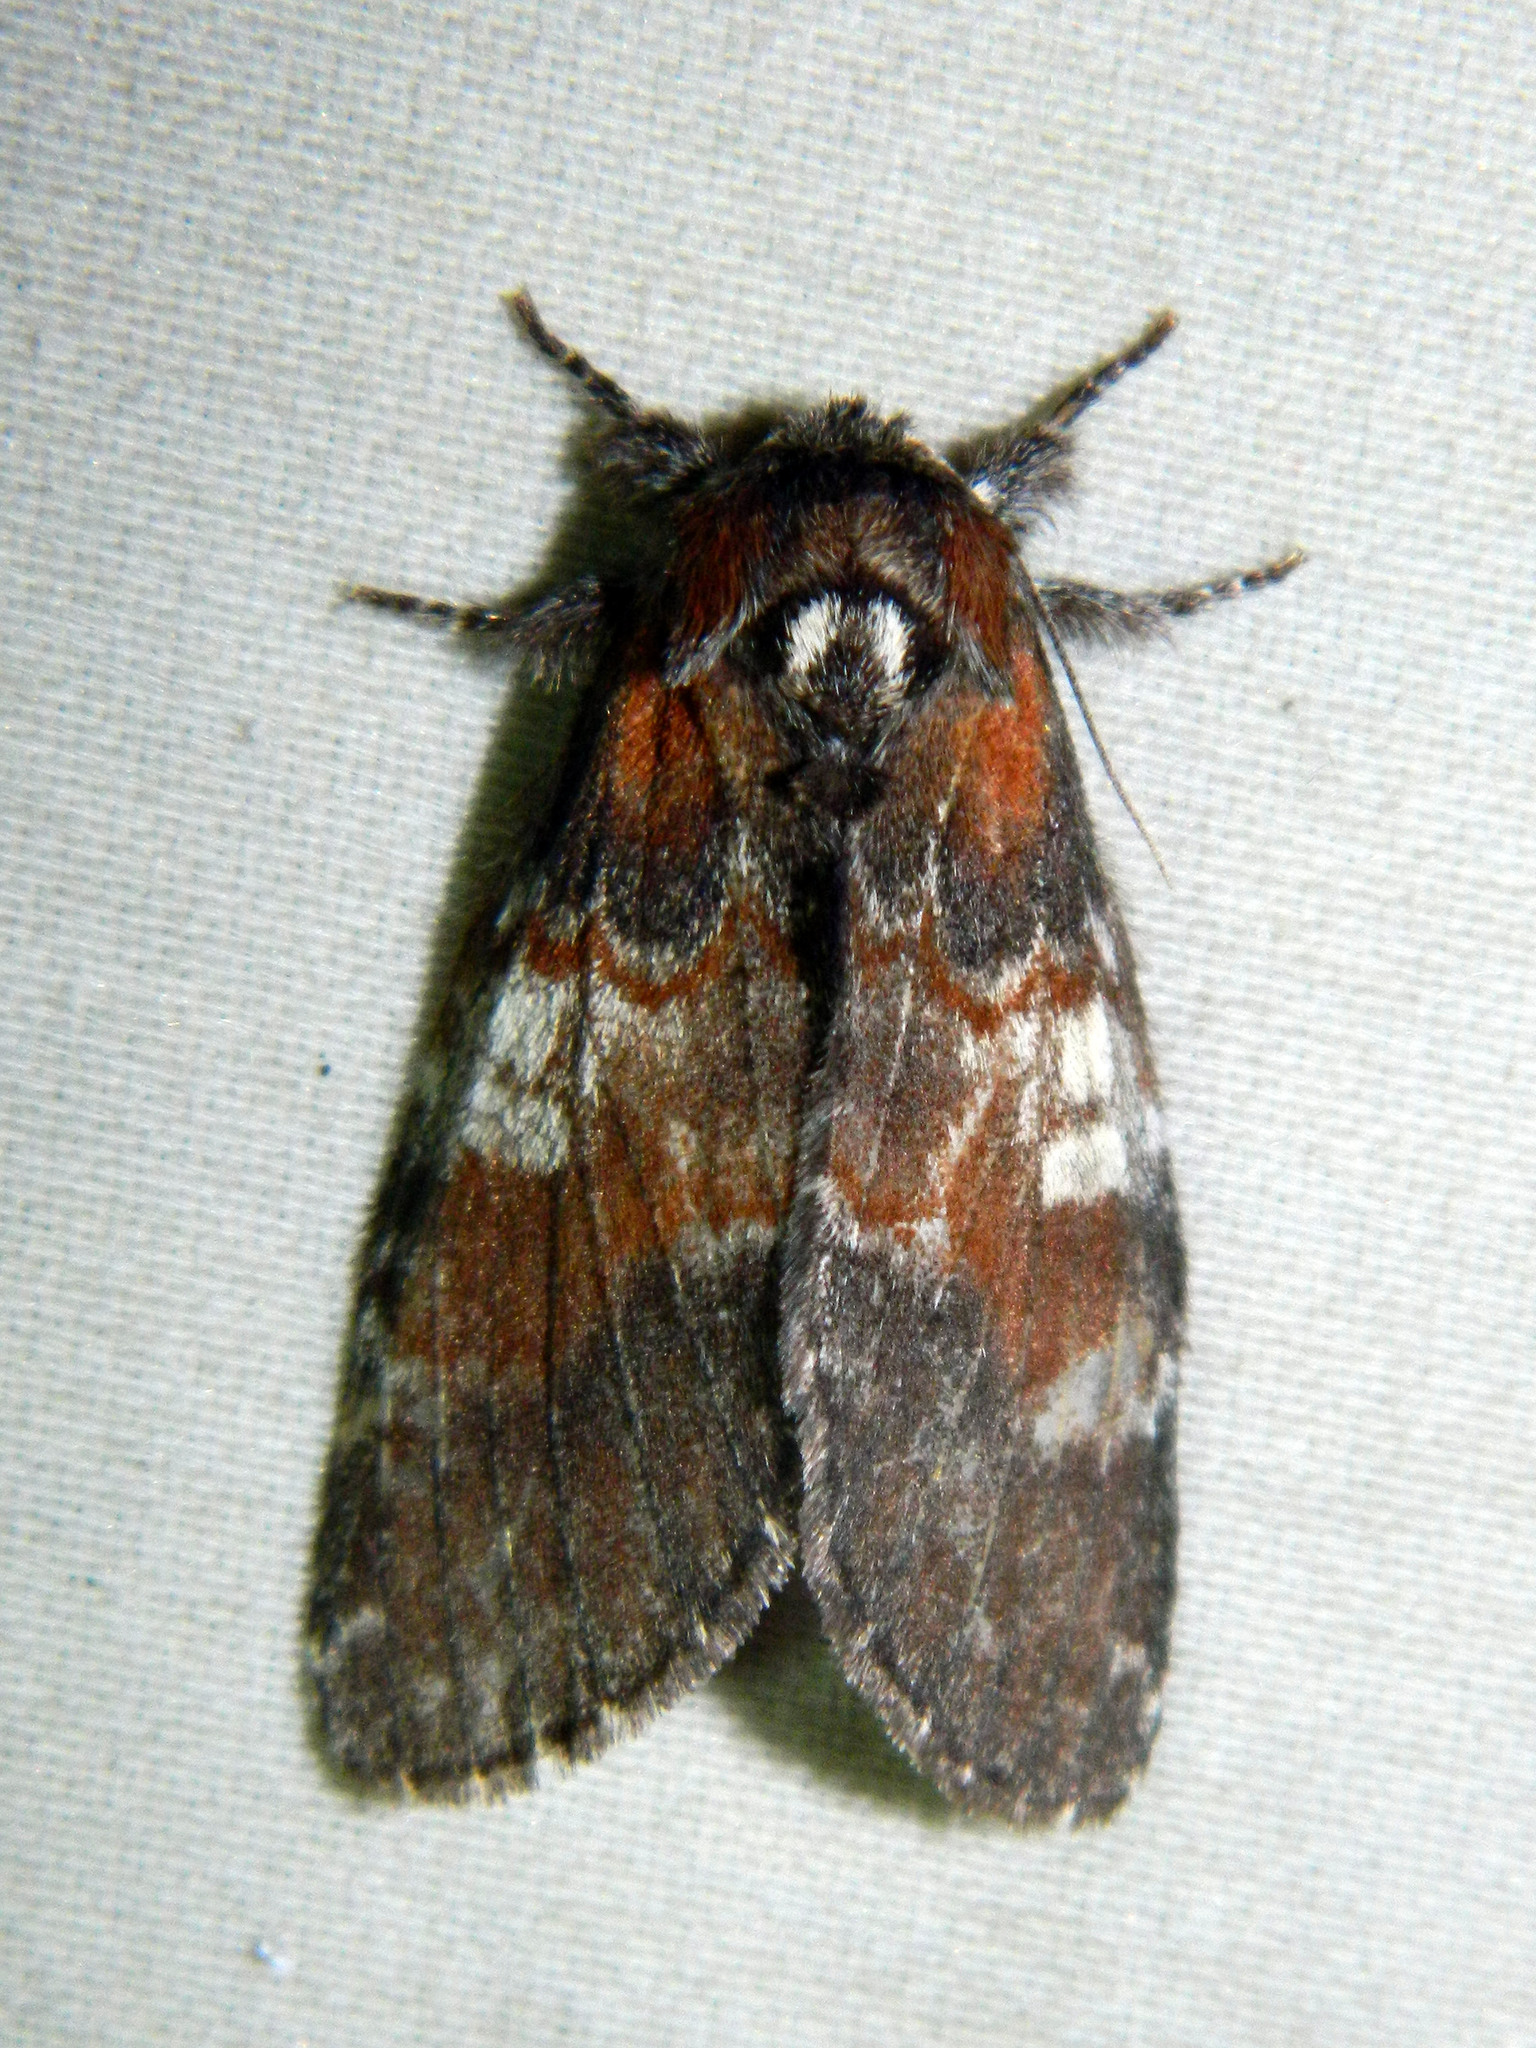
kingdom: Animalia
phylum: Arthropoda
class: Insecta
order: Lepidoptera
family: Notodontidae
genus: Peridea
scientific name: Peridea ferruginea
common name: Chocolate prominent
